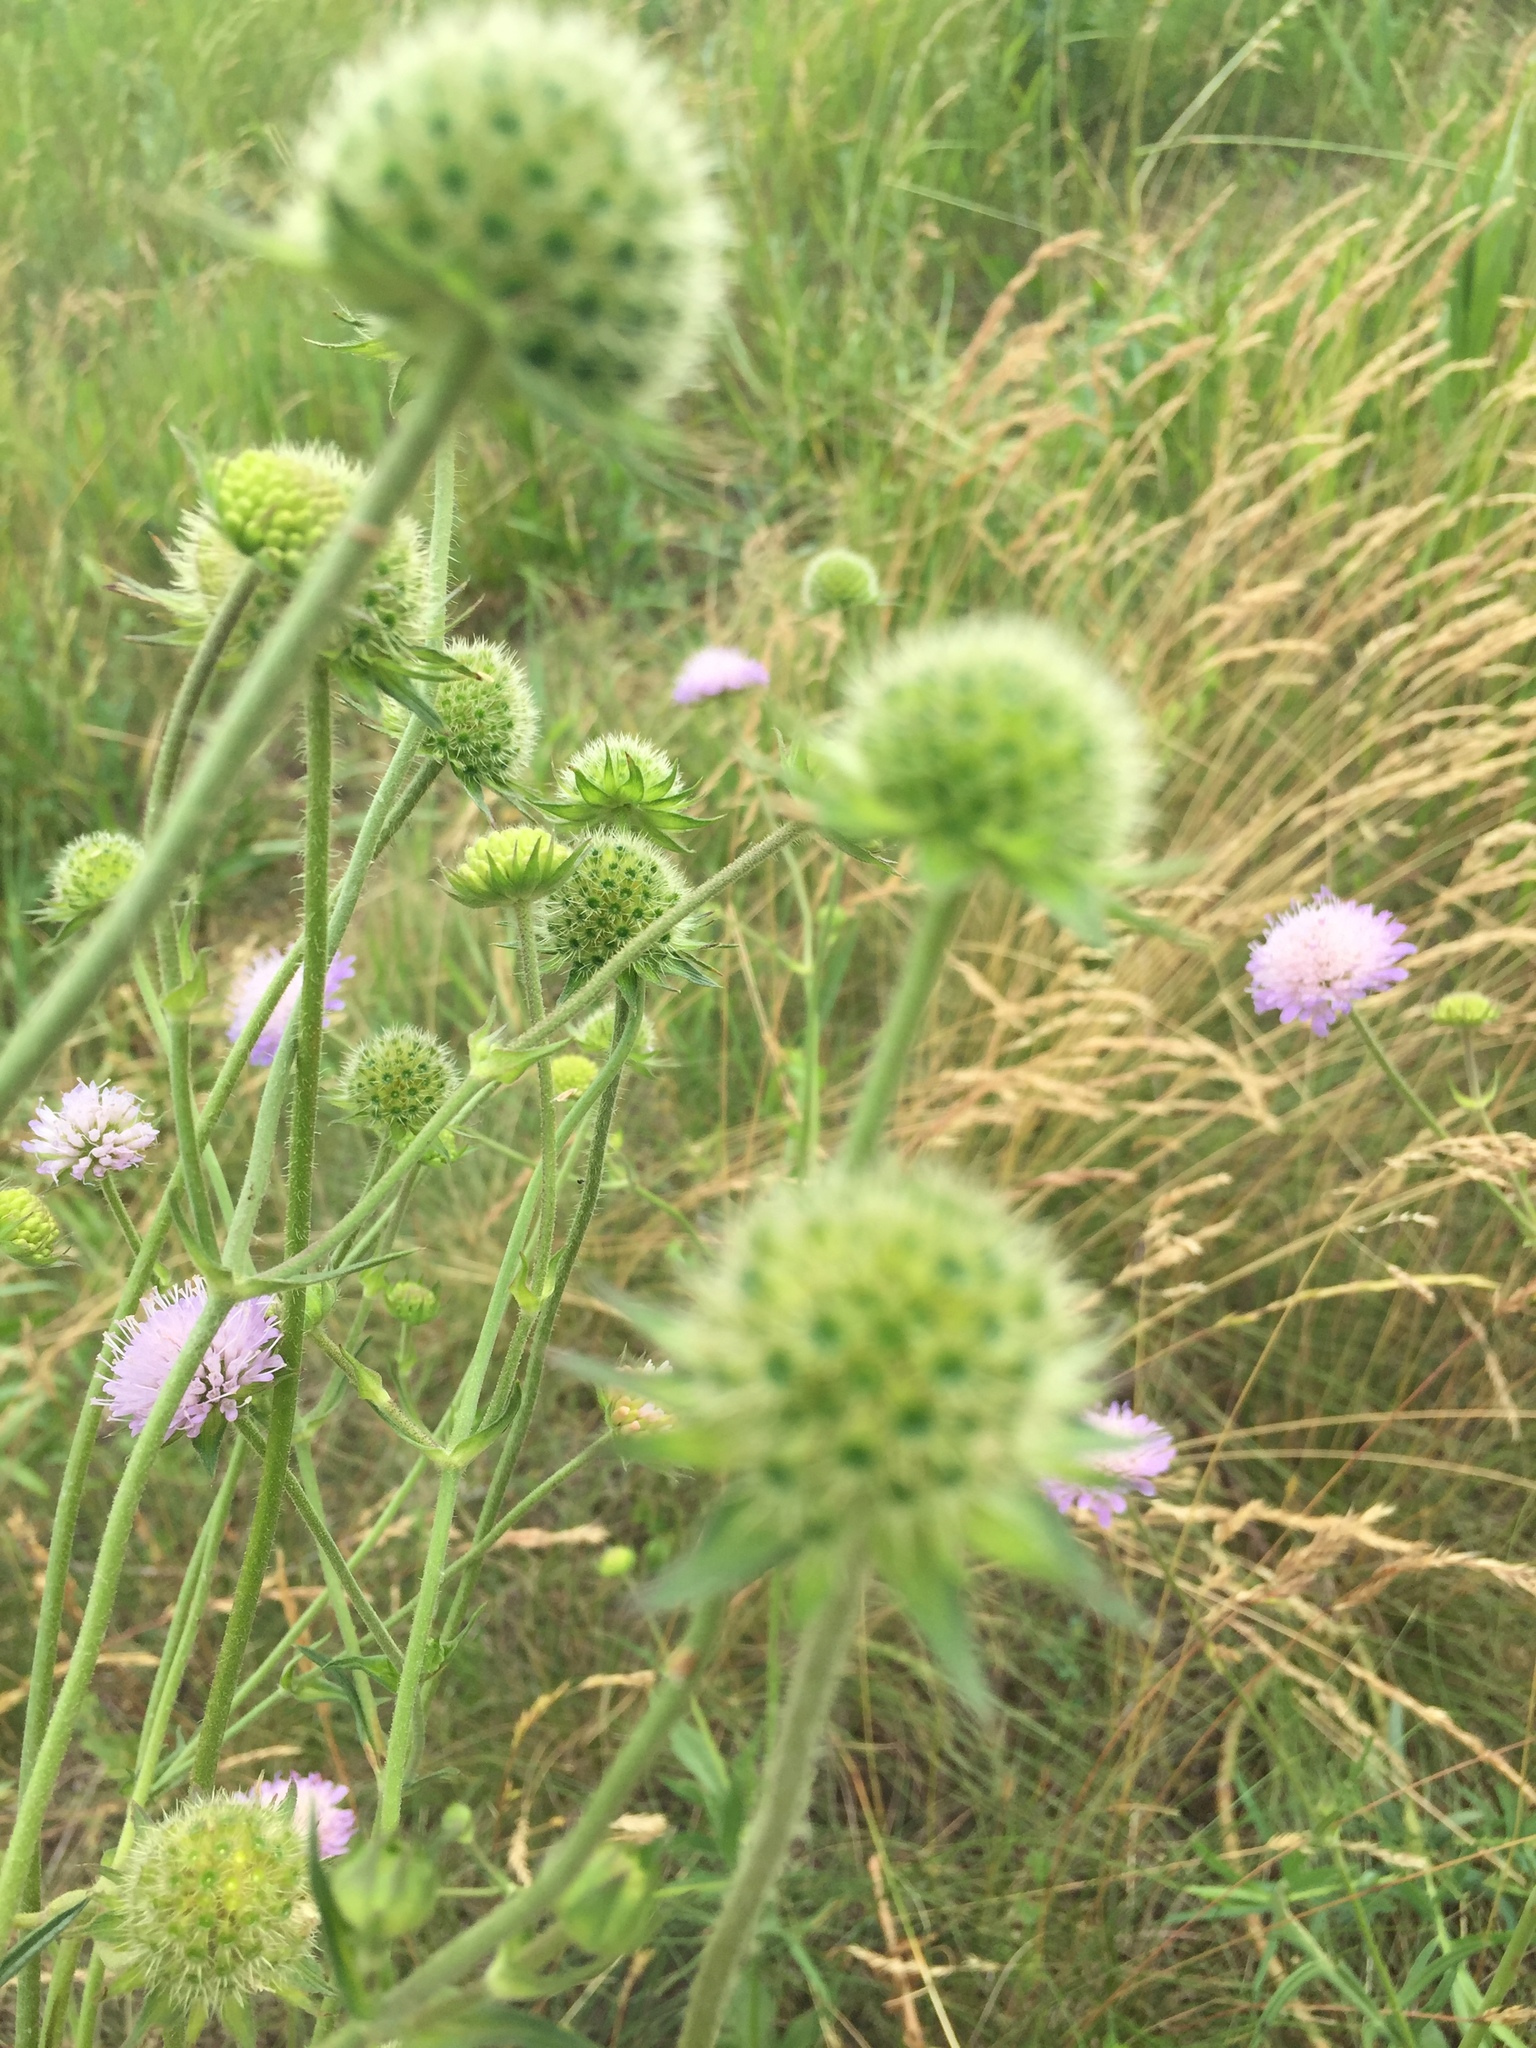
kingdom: Plantae
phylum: Tracheophyta
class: Magnoliopsida
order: Dipsacales
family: Caprifoliaceae
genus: Knautia
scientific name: Knautia arvensis
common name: Field scabiosa
